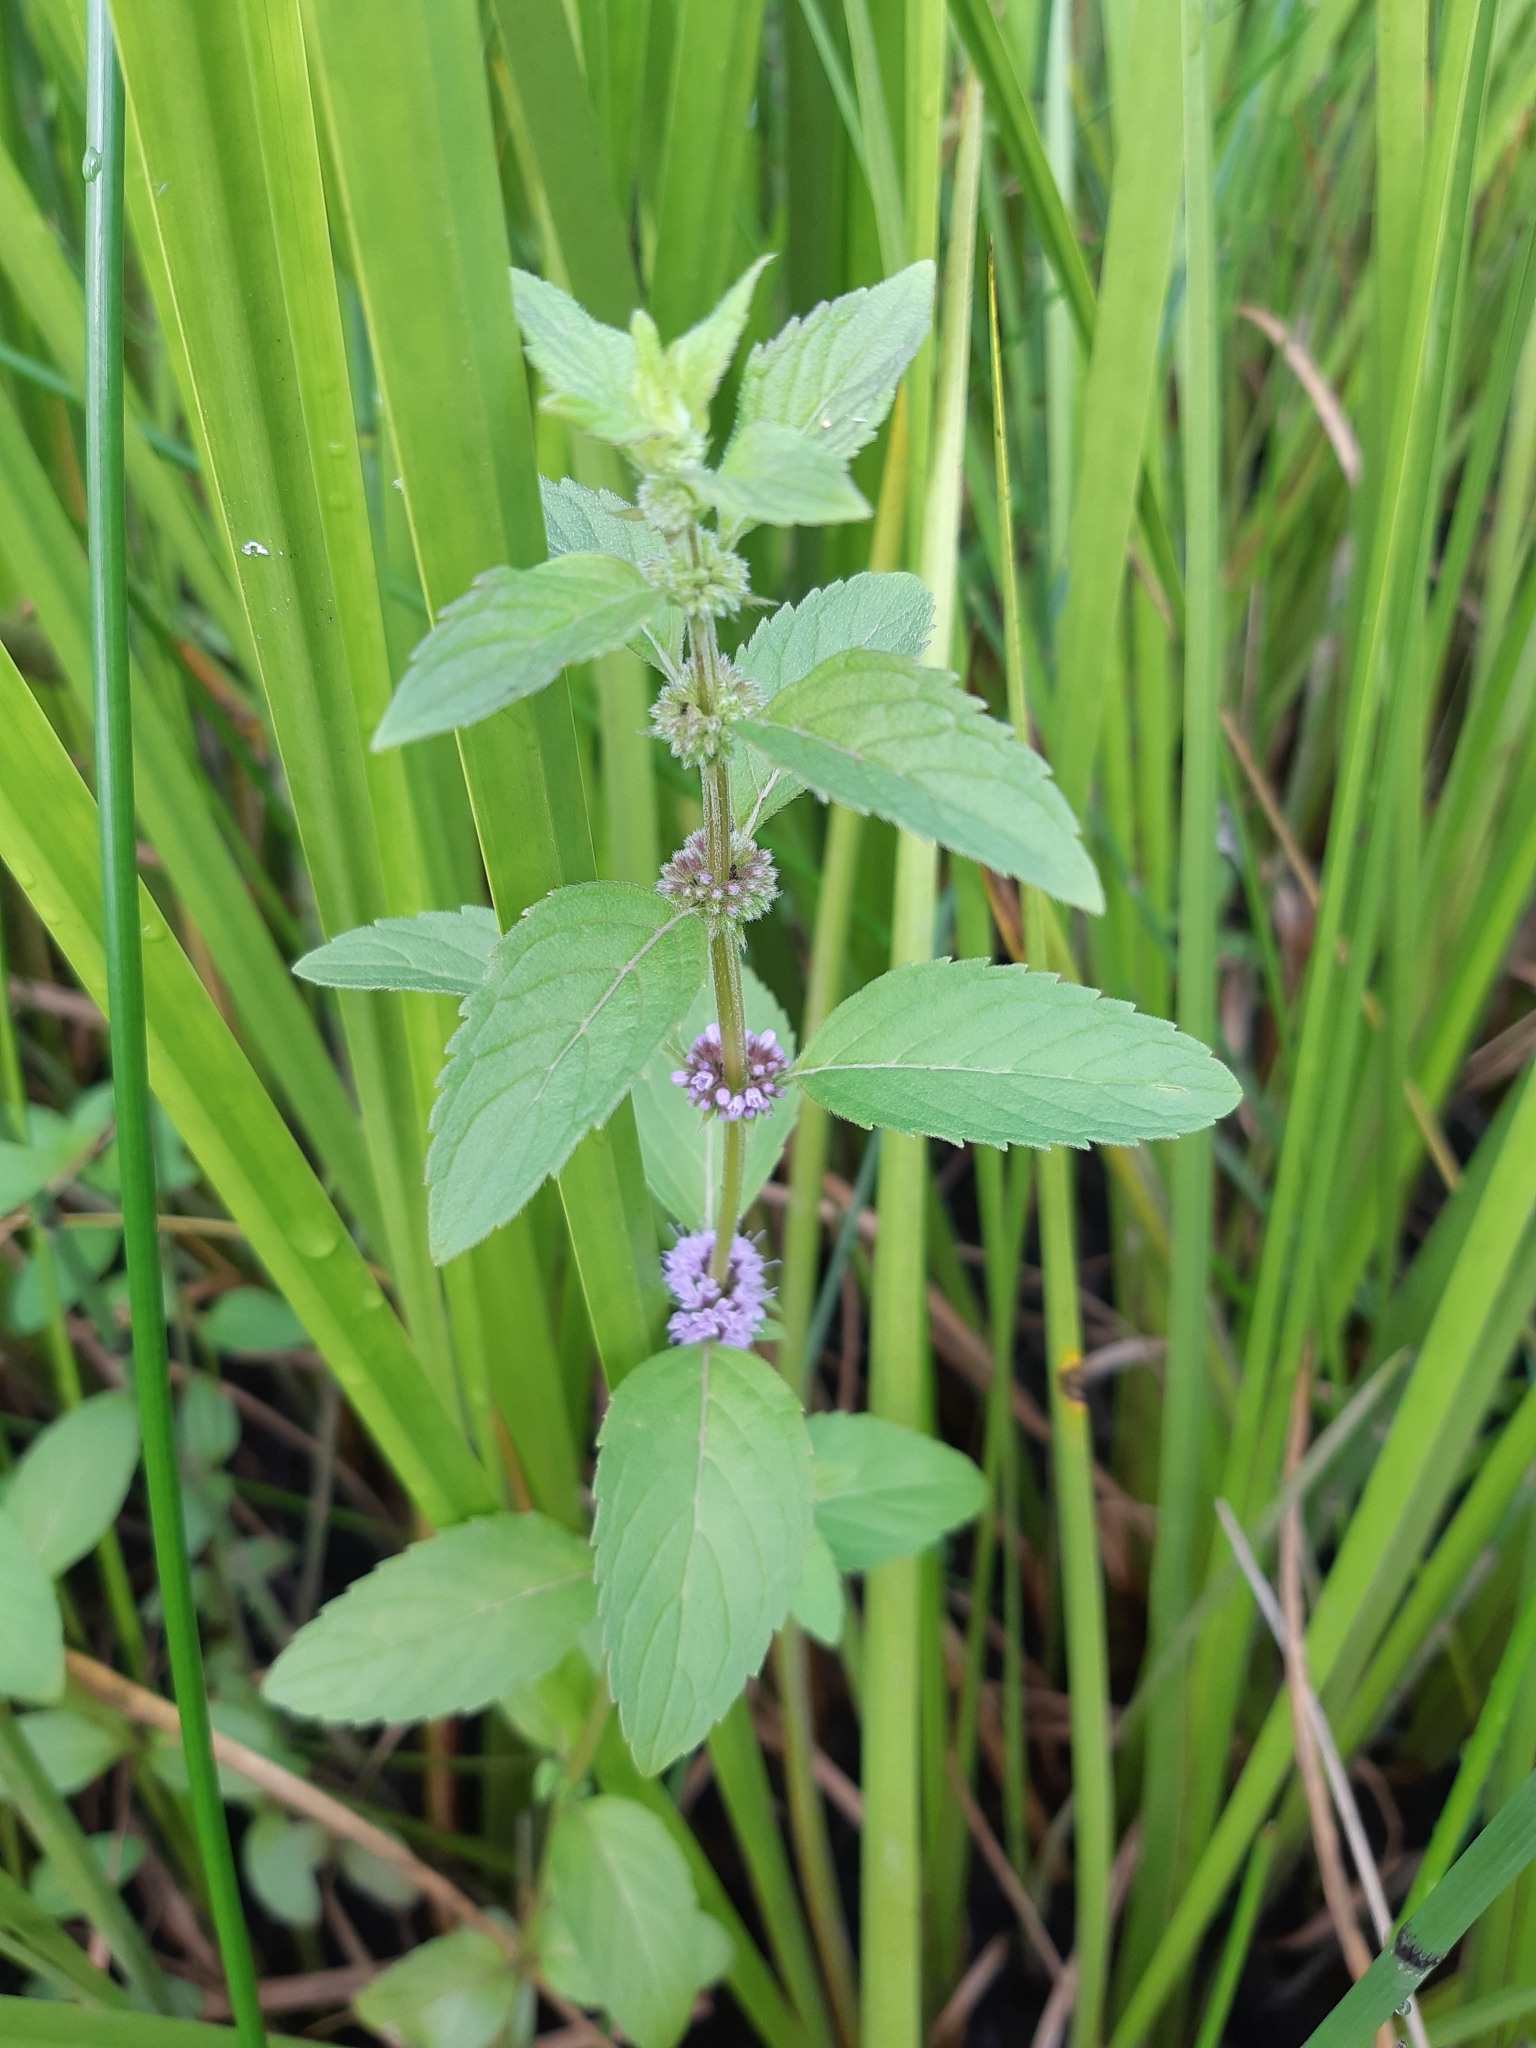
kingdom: Plantae
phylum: Tracheophyta
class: Magnoliopsida
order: Lamiales
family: Lamiaceae
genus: Mentha
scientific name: Mentha canadensis
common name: American corn mint
